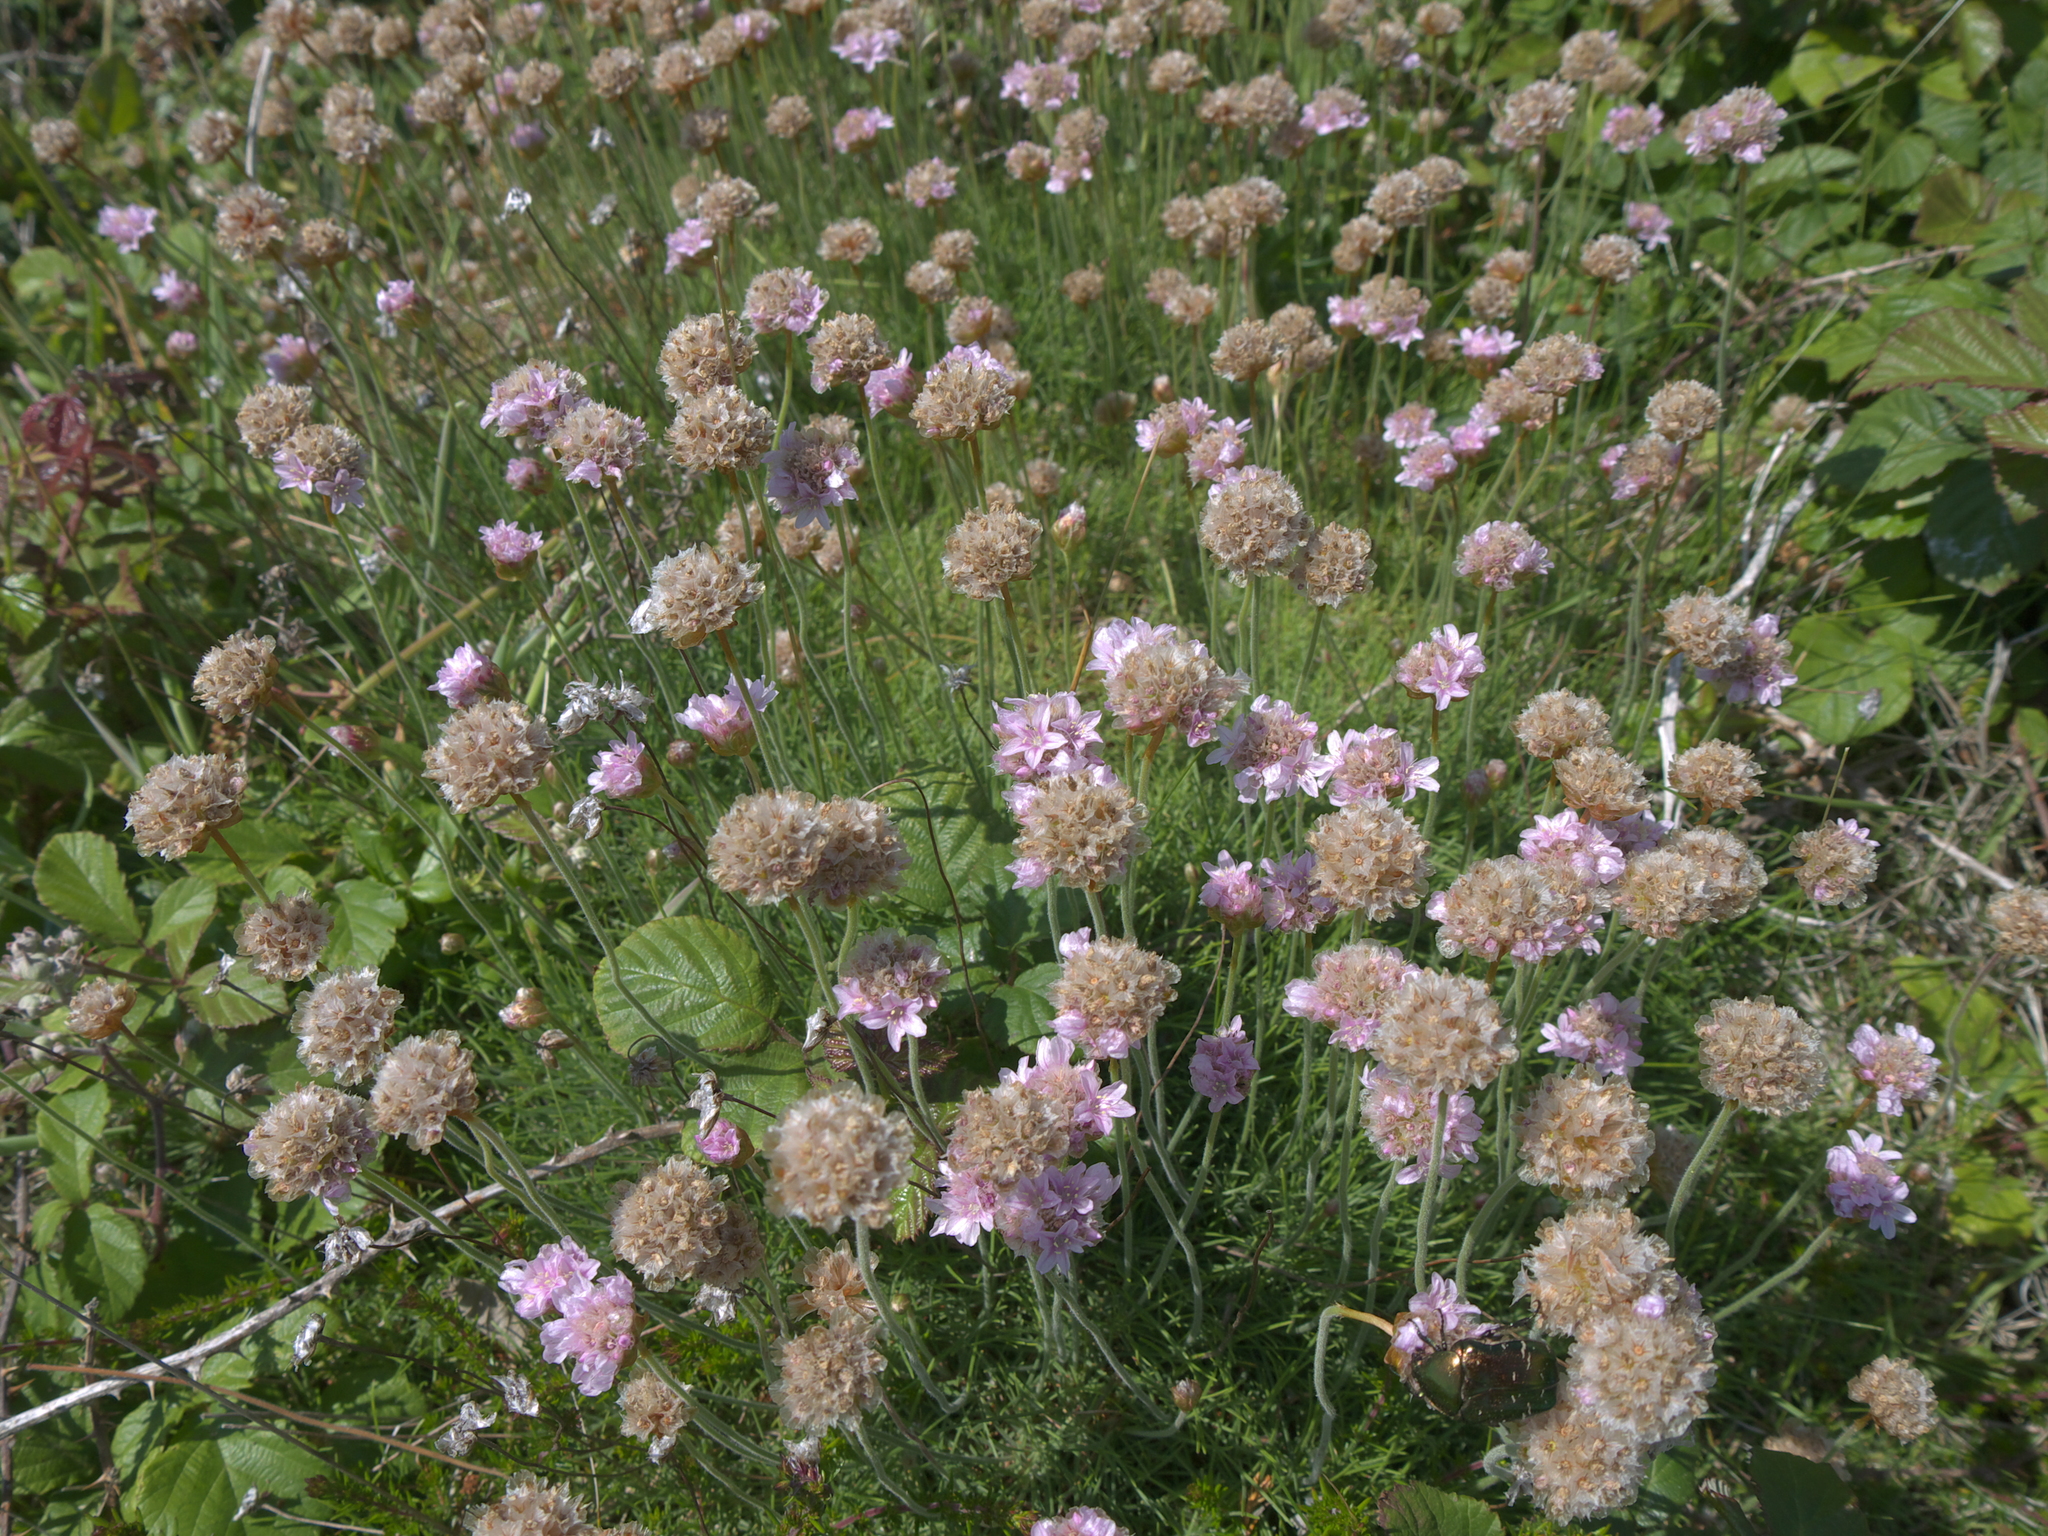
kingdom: Plantae
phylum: Tracheophyta
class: Magnoliopsida
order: Caryophyllales
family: Plumbaginaceae
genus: Armeria
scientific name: Armeria maritima
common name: Thrift
